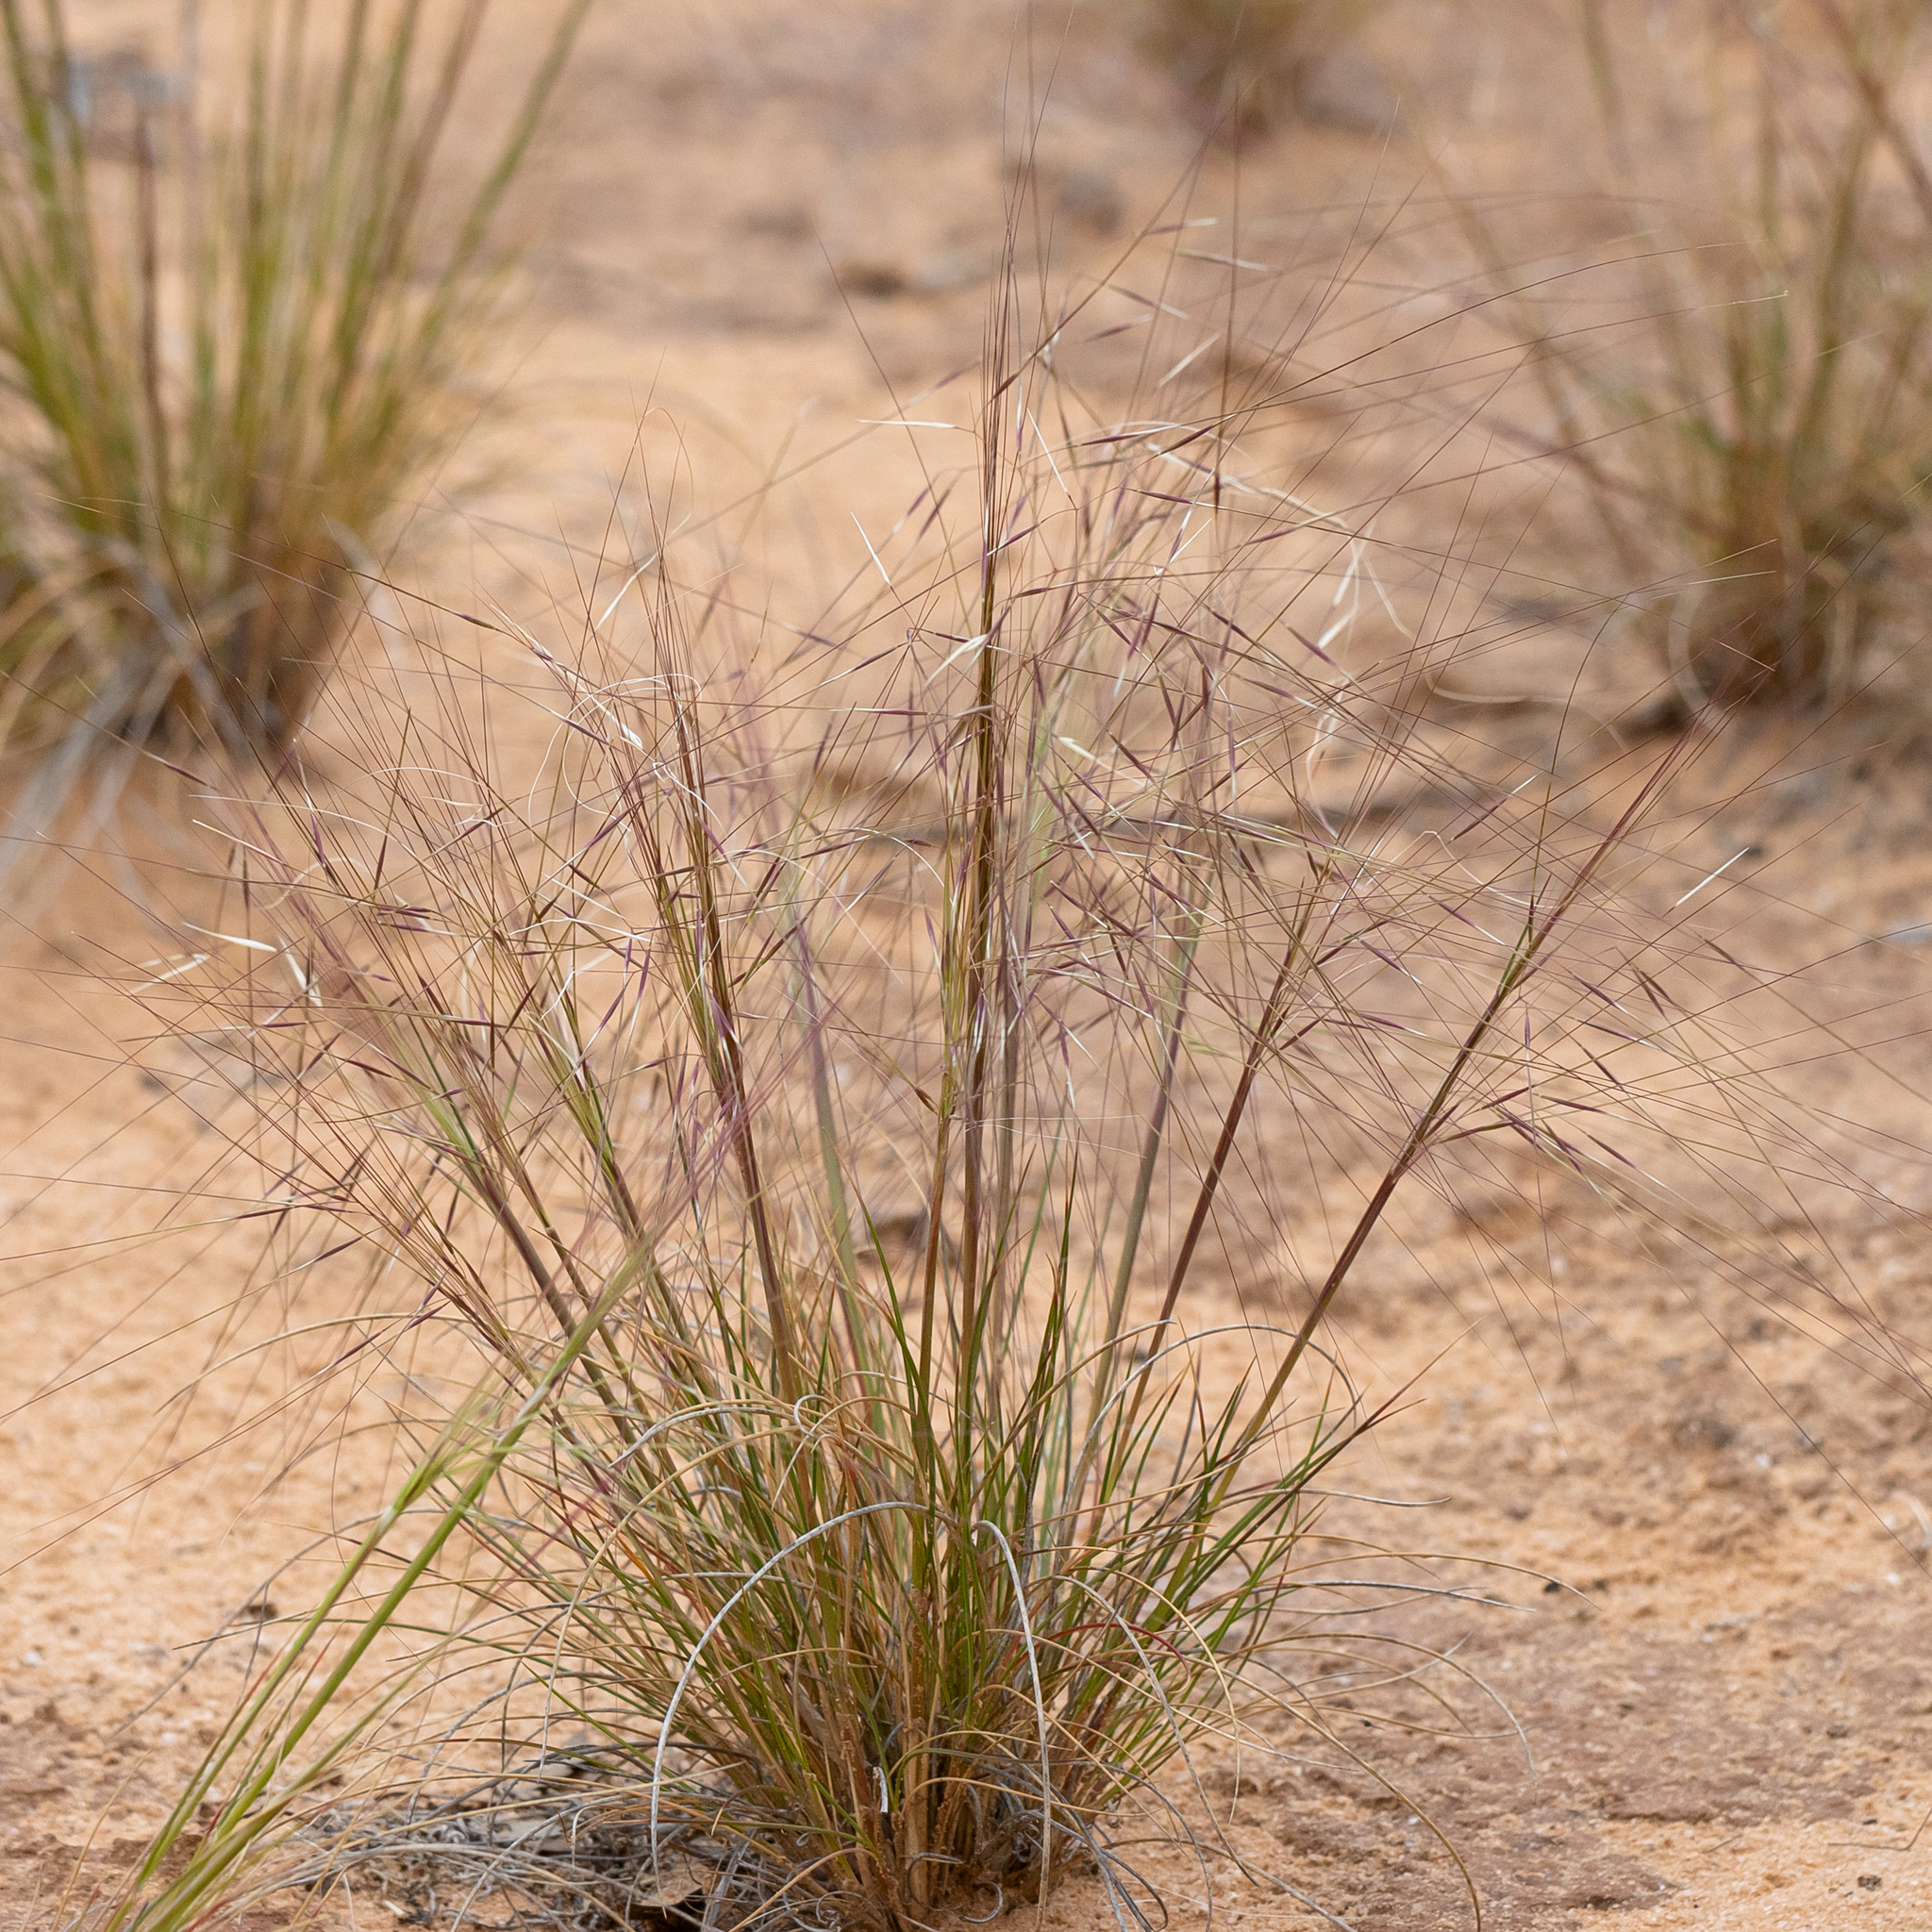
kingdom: Plantae
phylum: Tracheophyta
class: Liliopsida
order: Poales
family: Poaceae
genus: Austrostipa
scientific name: Austrostipa scabra
